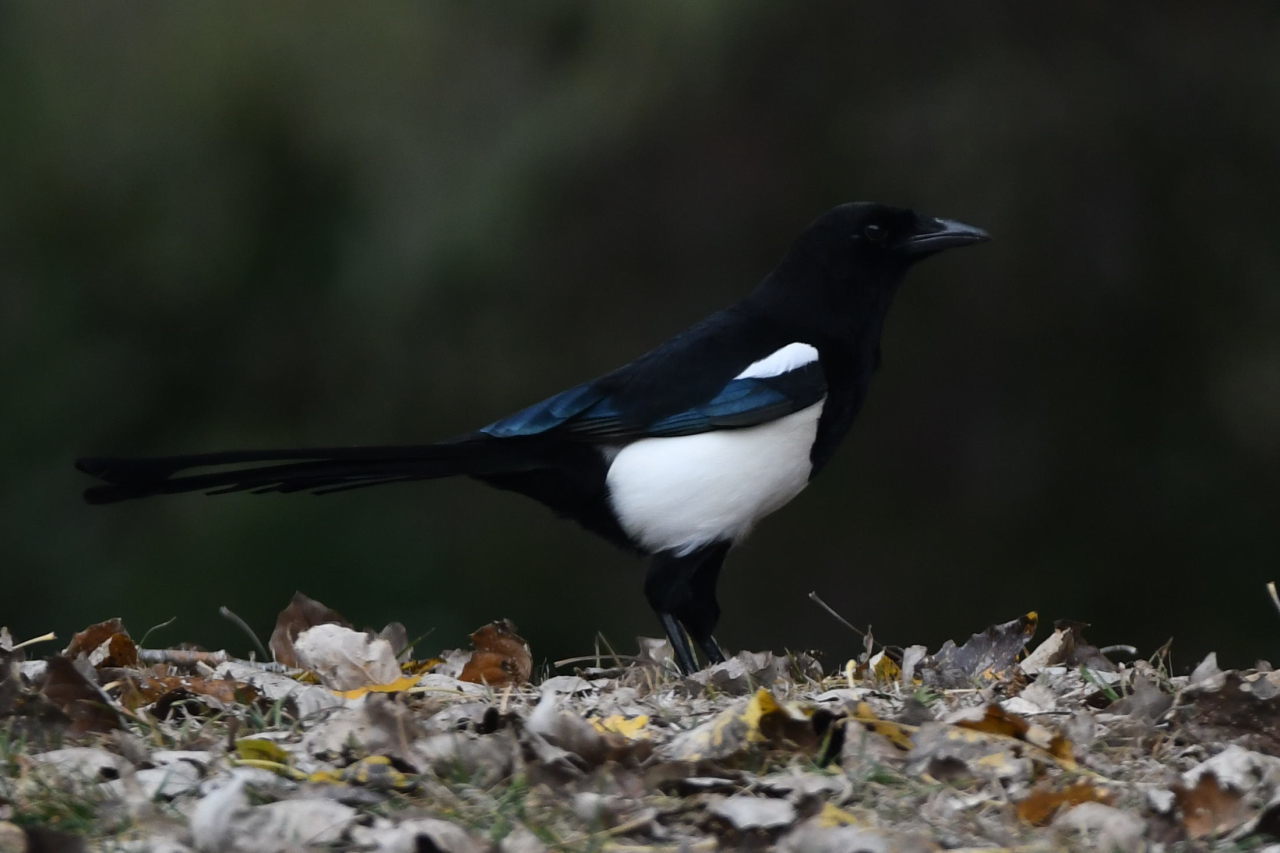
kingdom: Animalia
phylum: Chordata
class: Aves
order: Passeriformes
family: Corvidae
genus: Pica
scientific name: Pica pica
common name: Eurasian magpie
